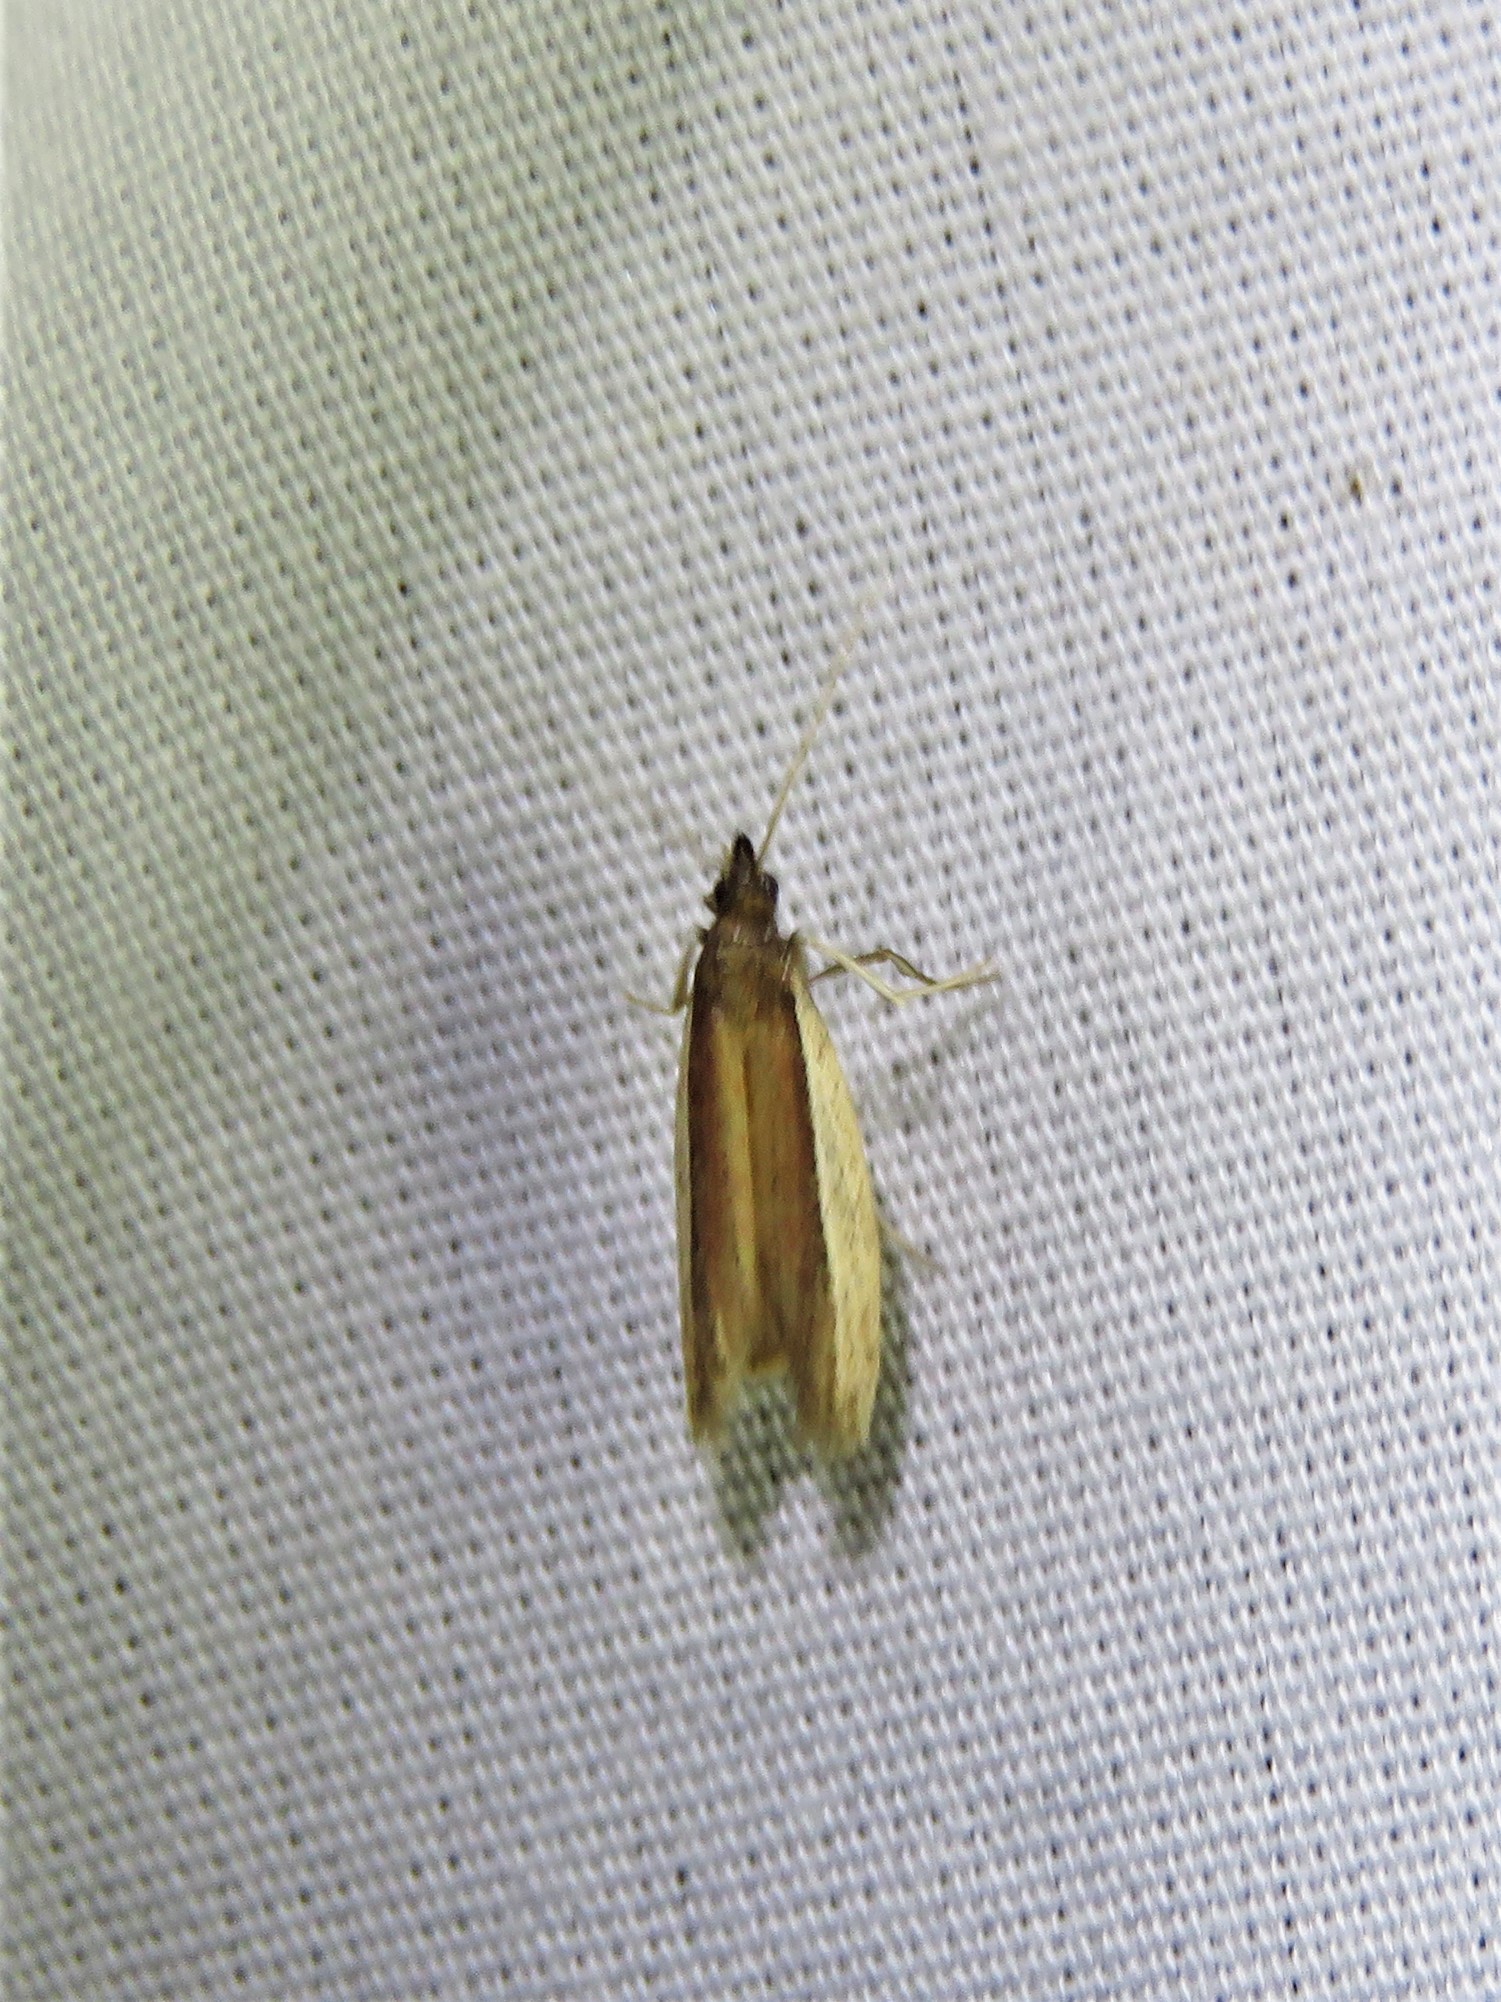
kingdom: Animalia
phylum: Arthropoda
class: Insecta
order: Lepidoptera
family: Pyralidae
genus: Tampa
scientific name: Tampa dimediatella
